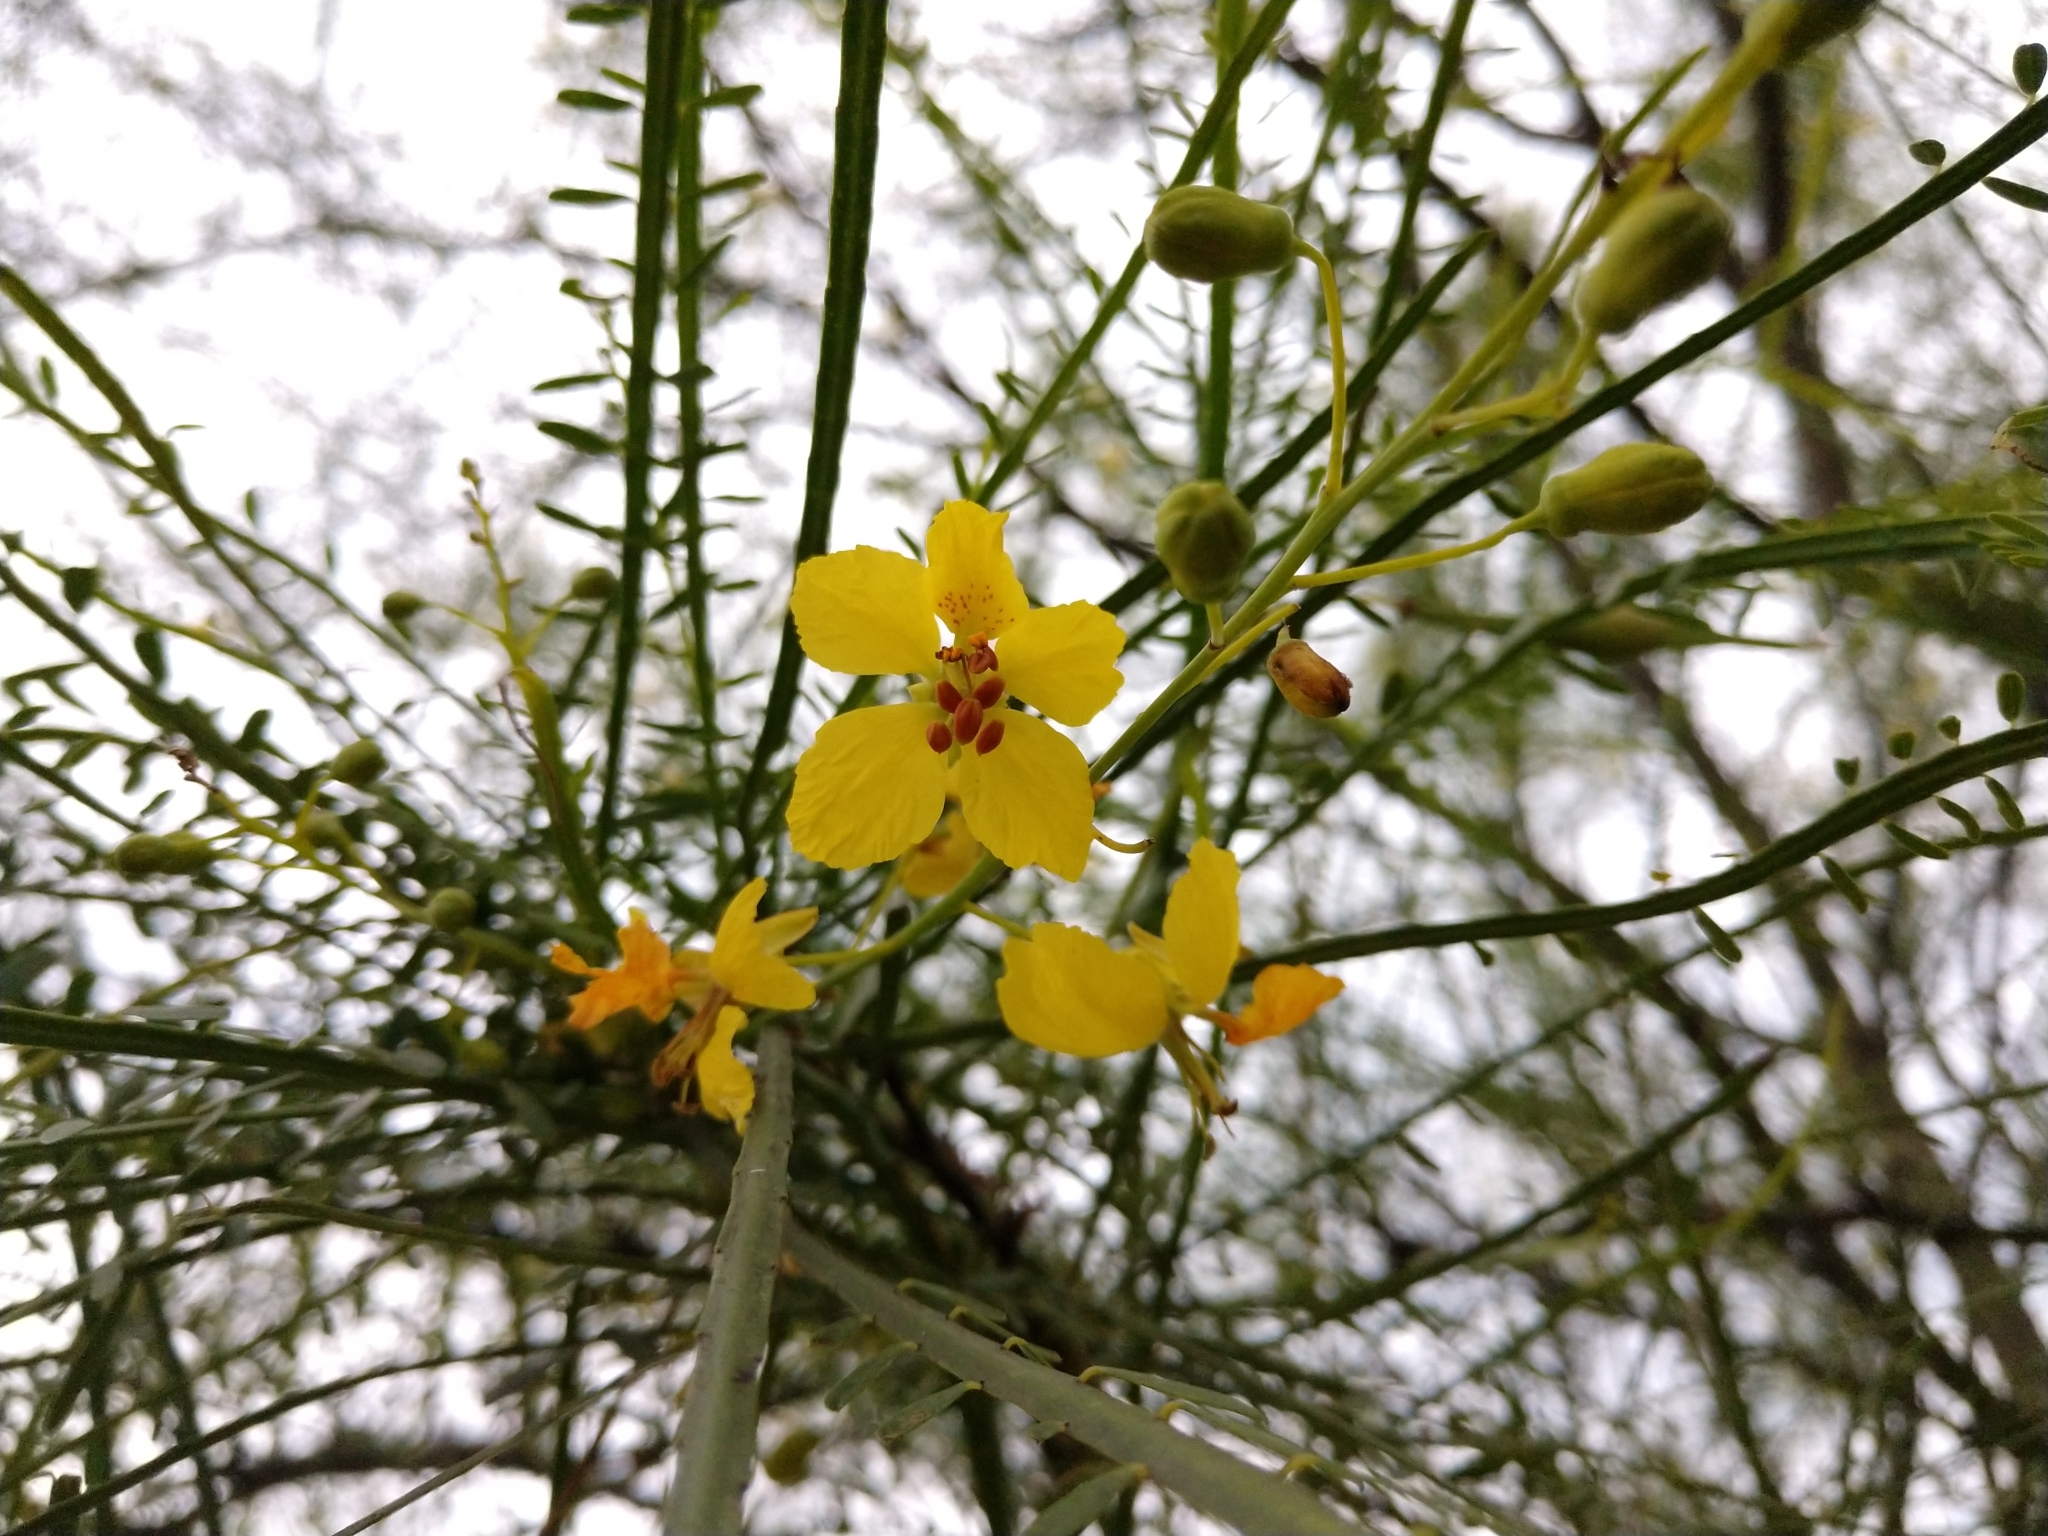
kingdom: Plantae
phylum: Tracheophyta
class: Magnoliopsida
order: Fabales
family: Fabaceae
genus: Parkinsonia
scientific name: Parkinsonia aculeata
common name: Jerusalem thorn
